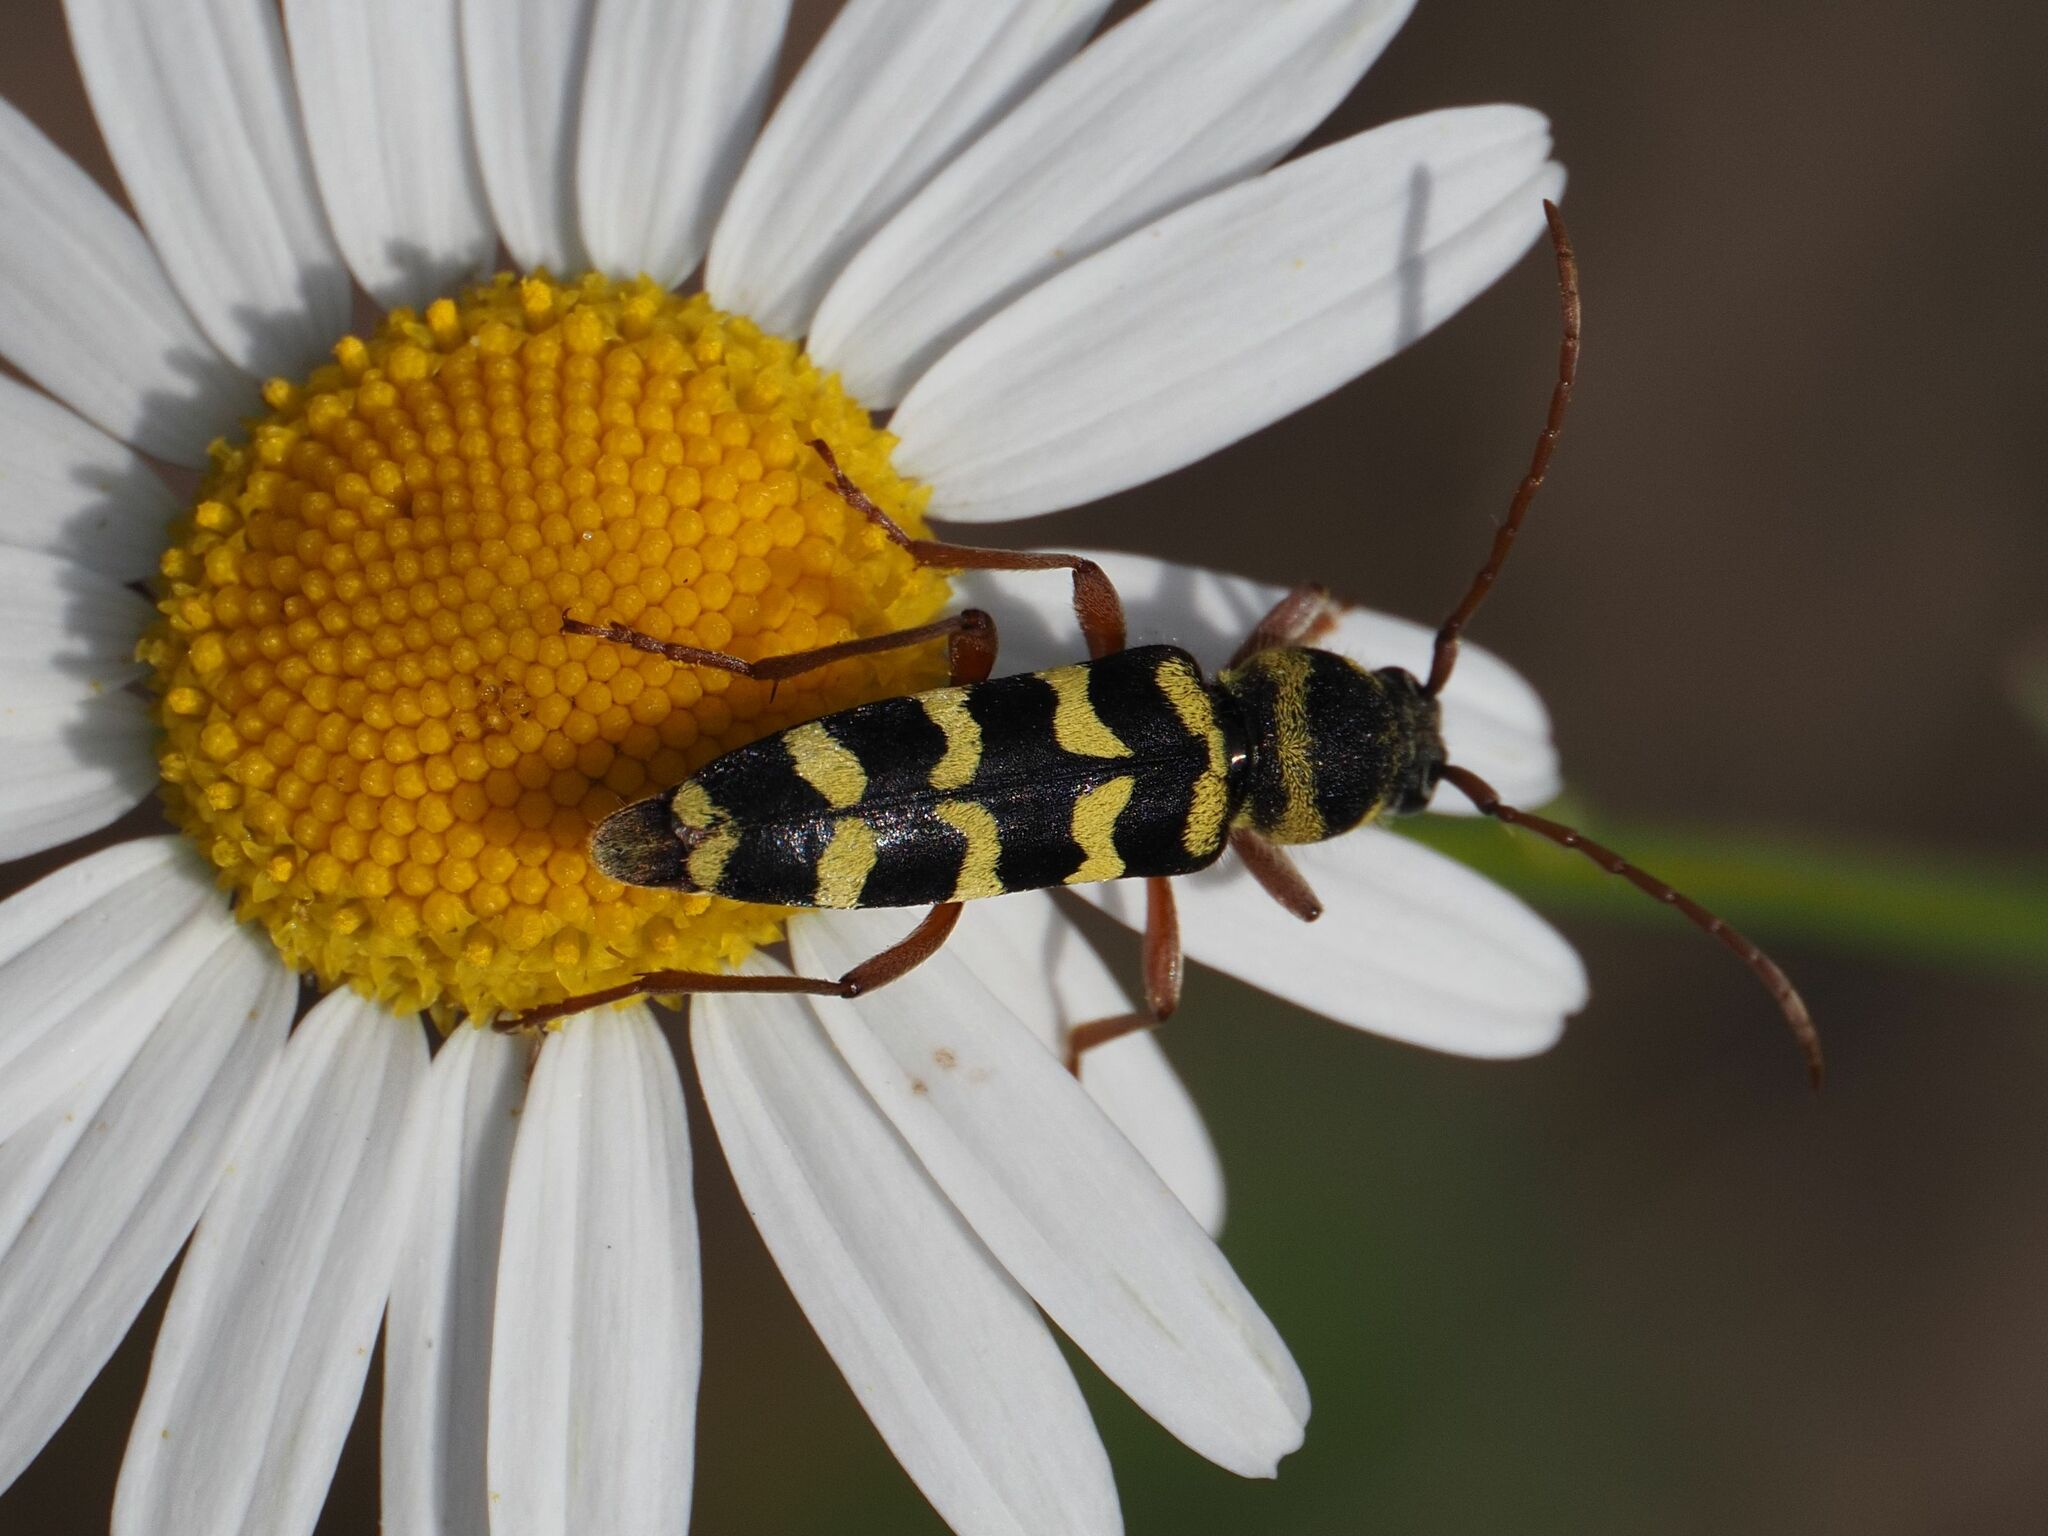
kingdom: Animalia
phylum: Arthropoda
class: Insecta
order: Coleoptera
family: Cerambycidae
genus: Plagionotus
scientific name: Plagionotus floralis
